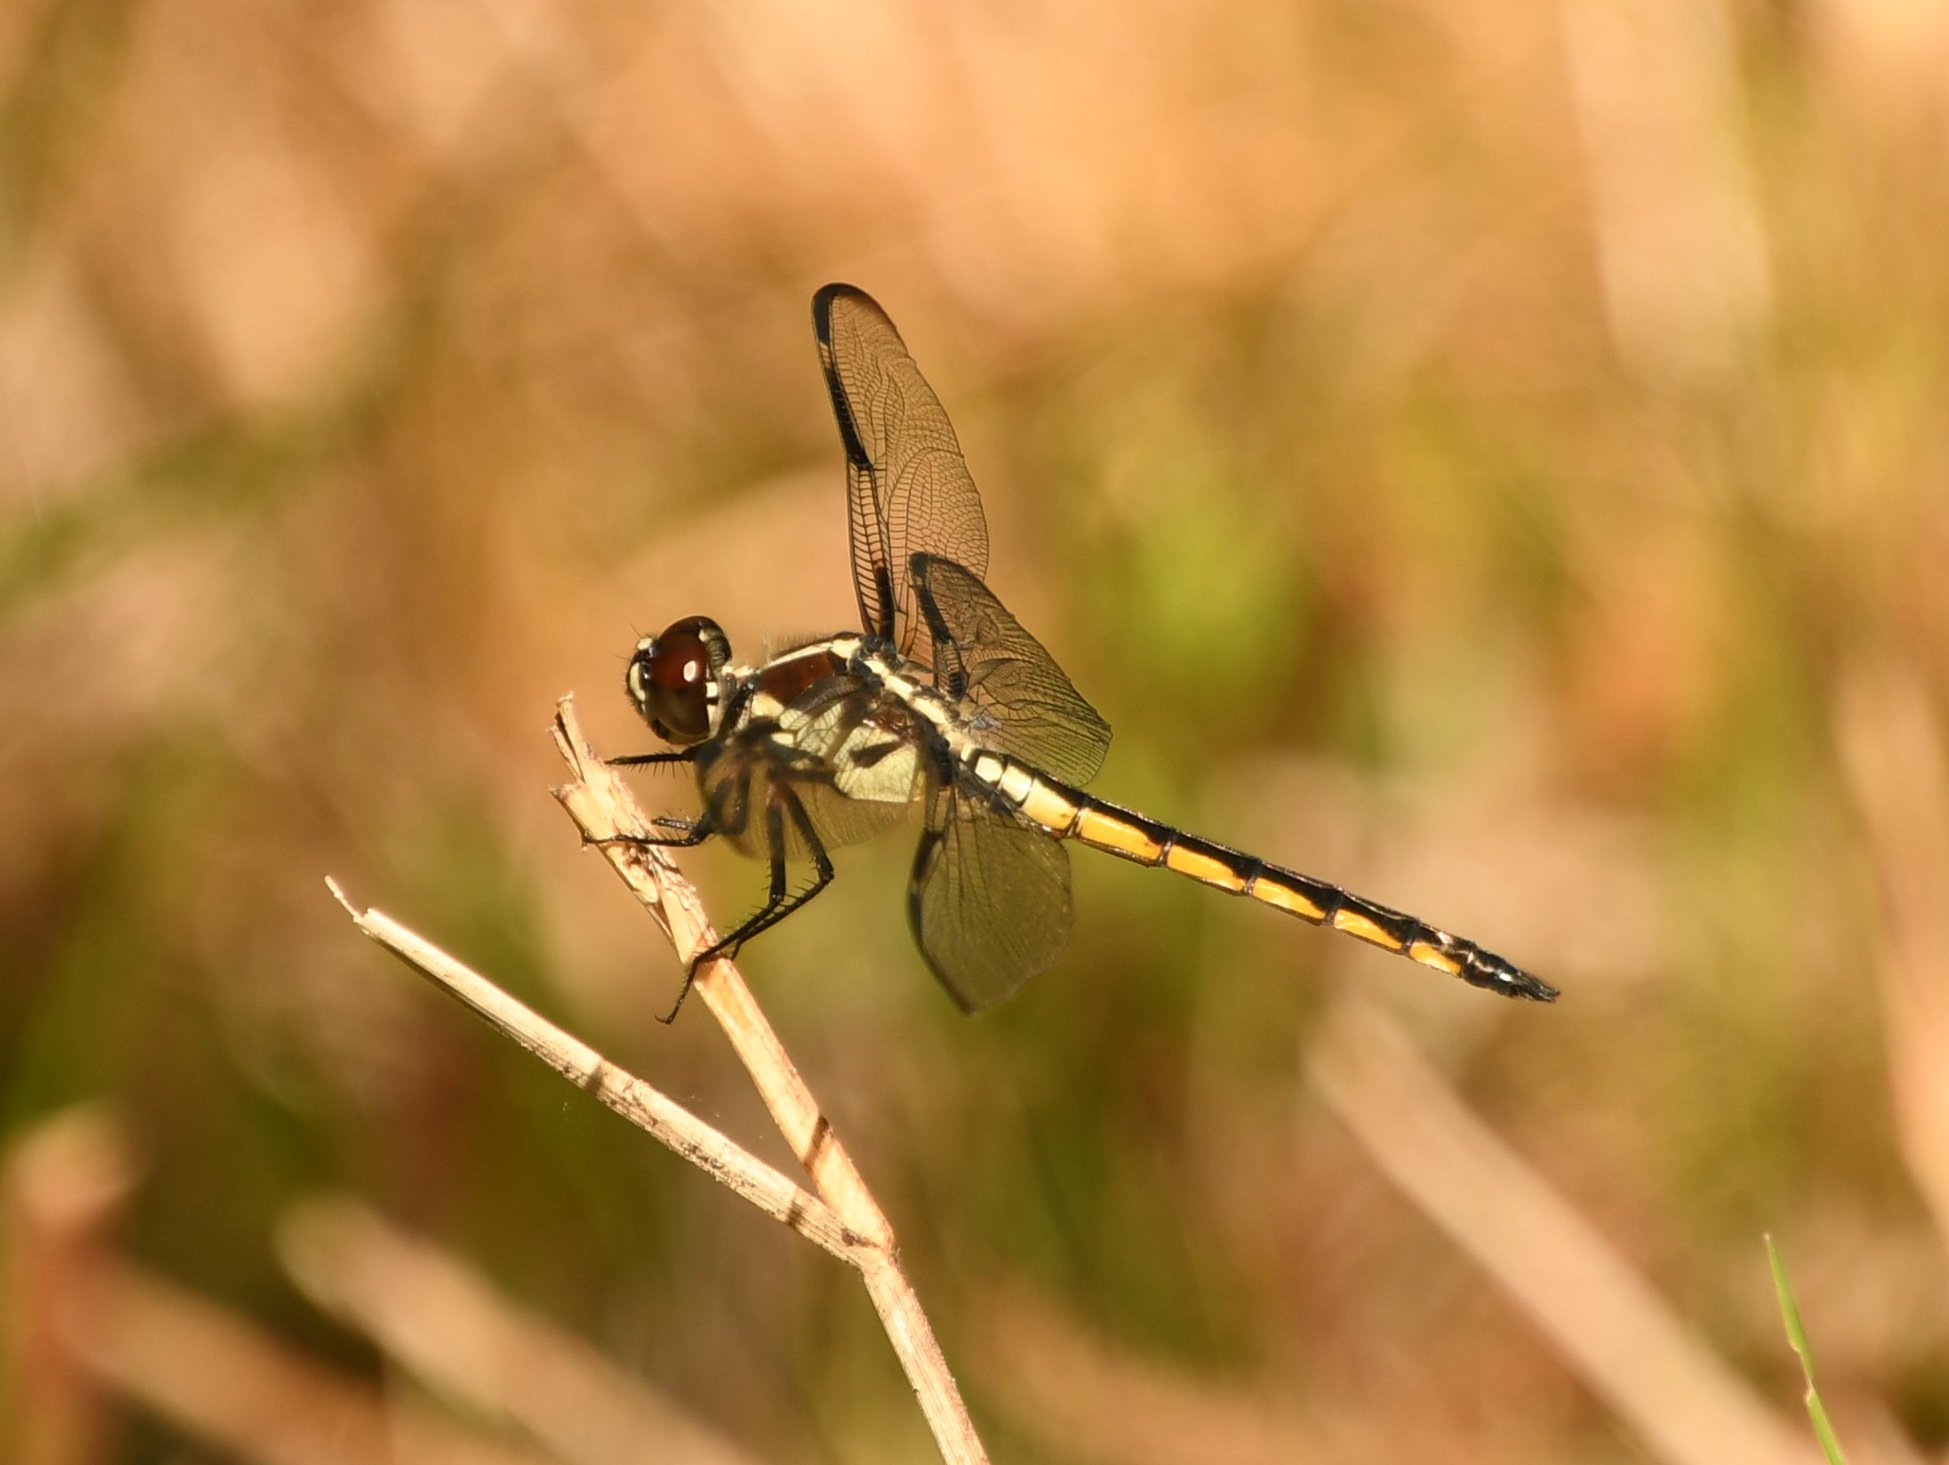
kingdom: Animalia
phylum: Arthropoda
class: Insecta
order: Odonata
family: Libellulidae
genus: Libellula
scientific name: Libellula axilena
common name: Bar-winged skimmer
